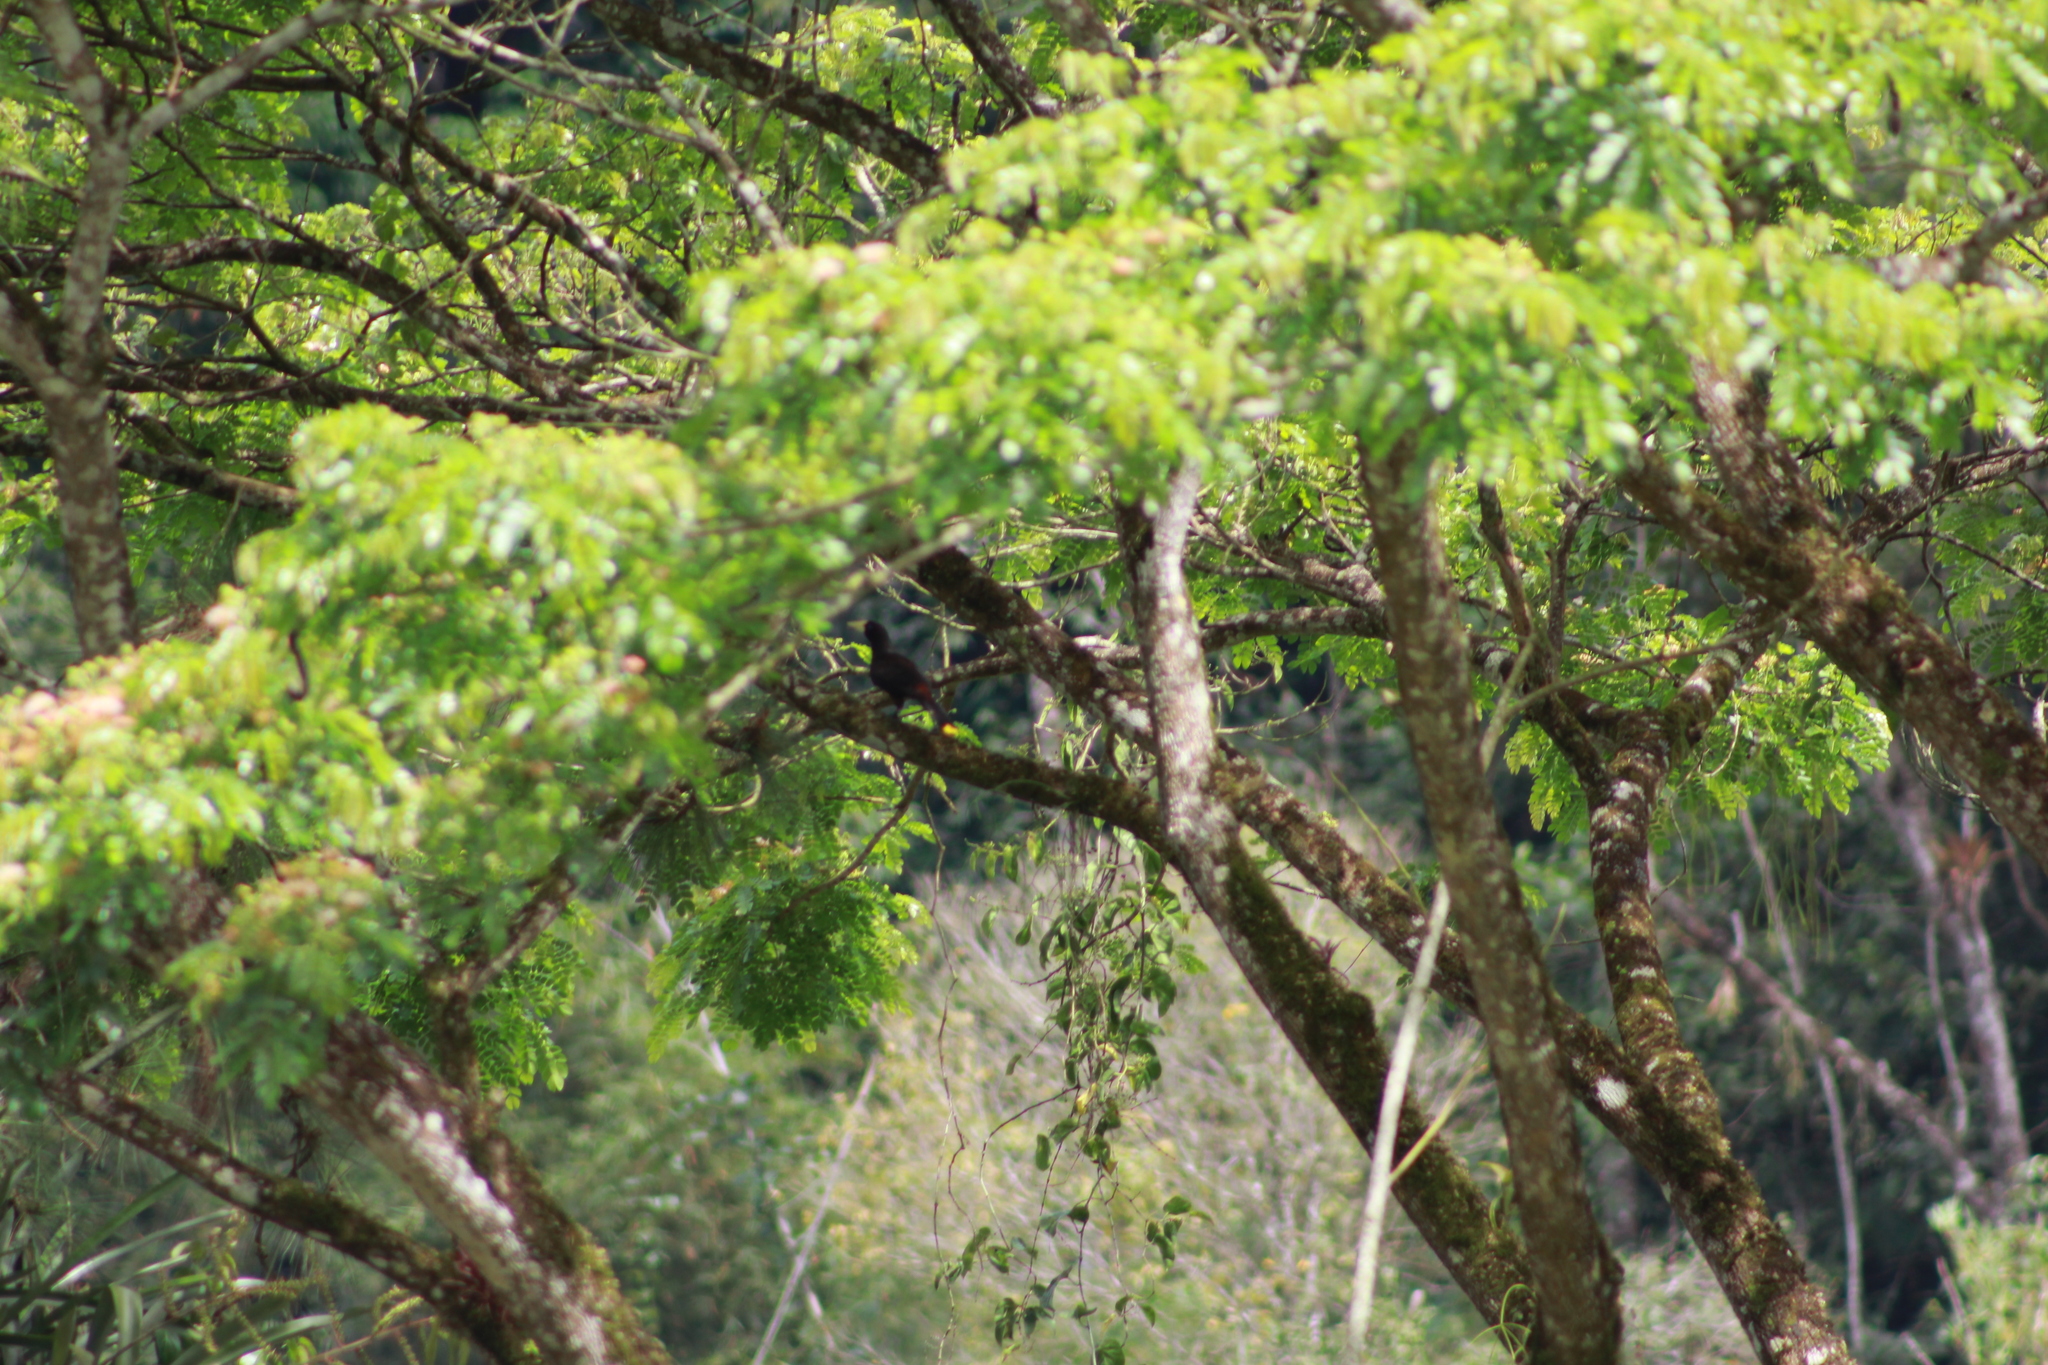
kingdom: Animalia
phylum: Chordata
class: Aves
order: Passeriformes
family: Icteridae
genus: Psarocolius
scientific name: Psarocolius decumanus
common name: Crested oropendola
